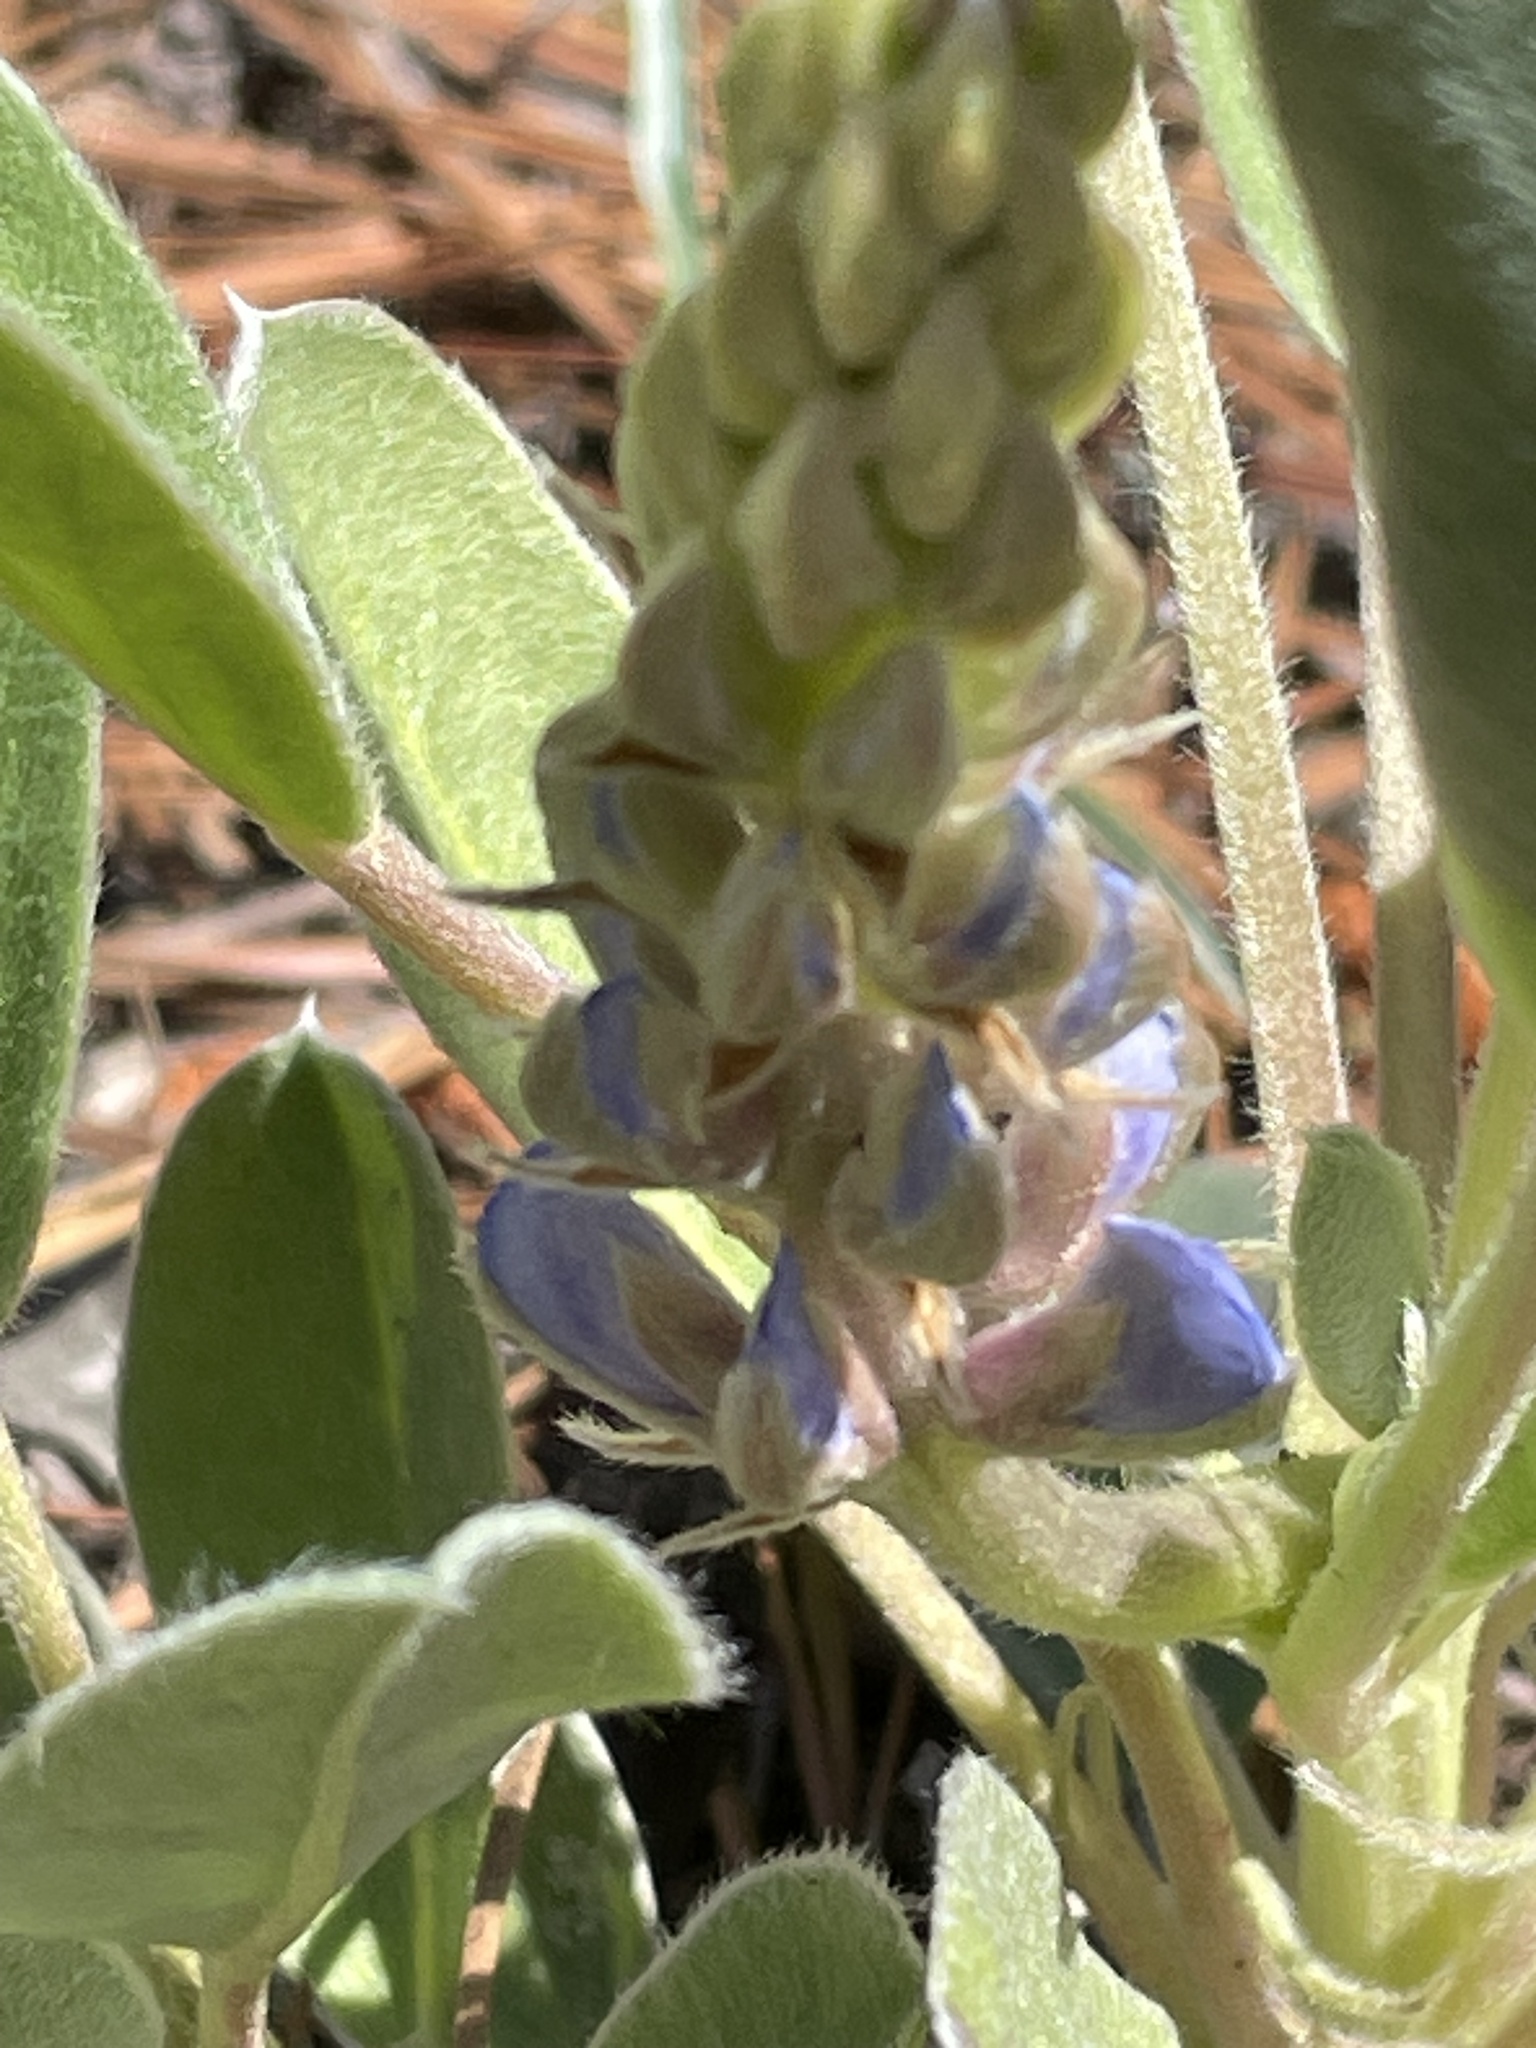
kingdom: Plantae
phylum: Tracheophyta
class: Magnoliopsida
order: Fabales
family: Fabaceae
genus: Lupinus
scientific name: Lupinus diffusus
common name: Oak ridge lupine
